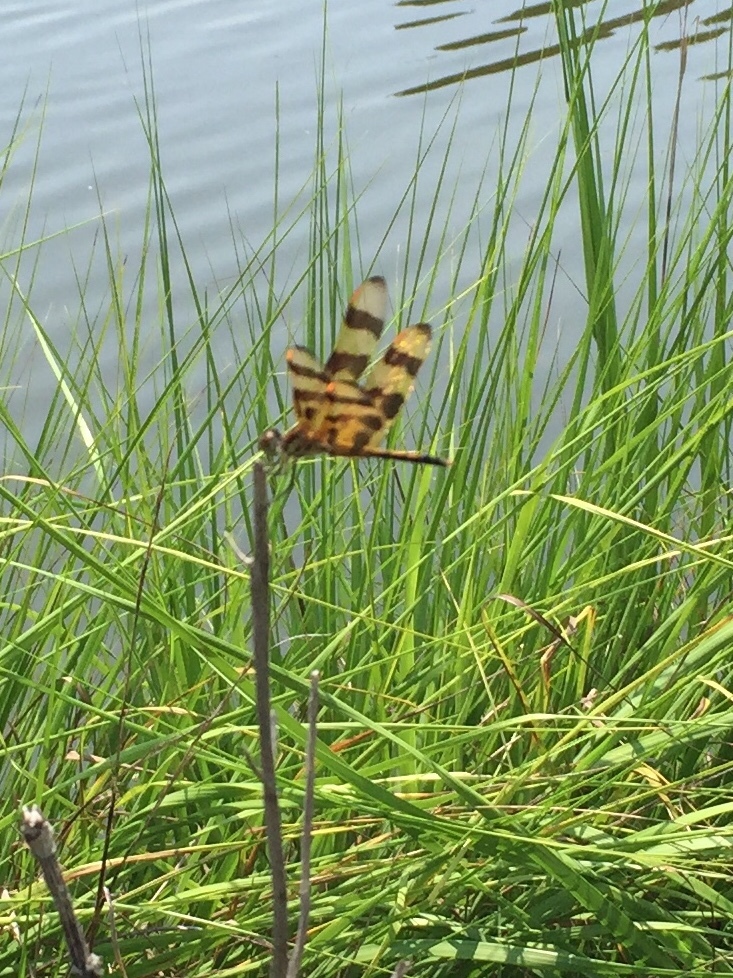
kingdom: Animalia
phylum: Arthropoda
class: Insecta
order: Odonata
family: Libellulidae
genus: Celithemis
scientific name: Celithemis eponina
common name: Halloween pennant
